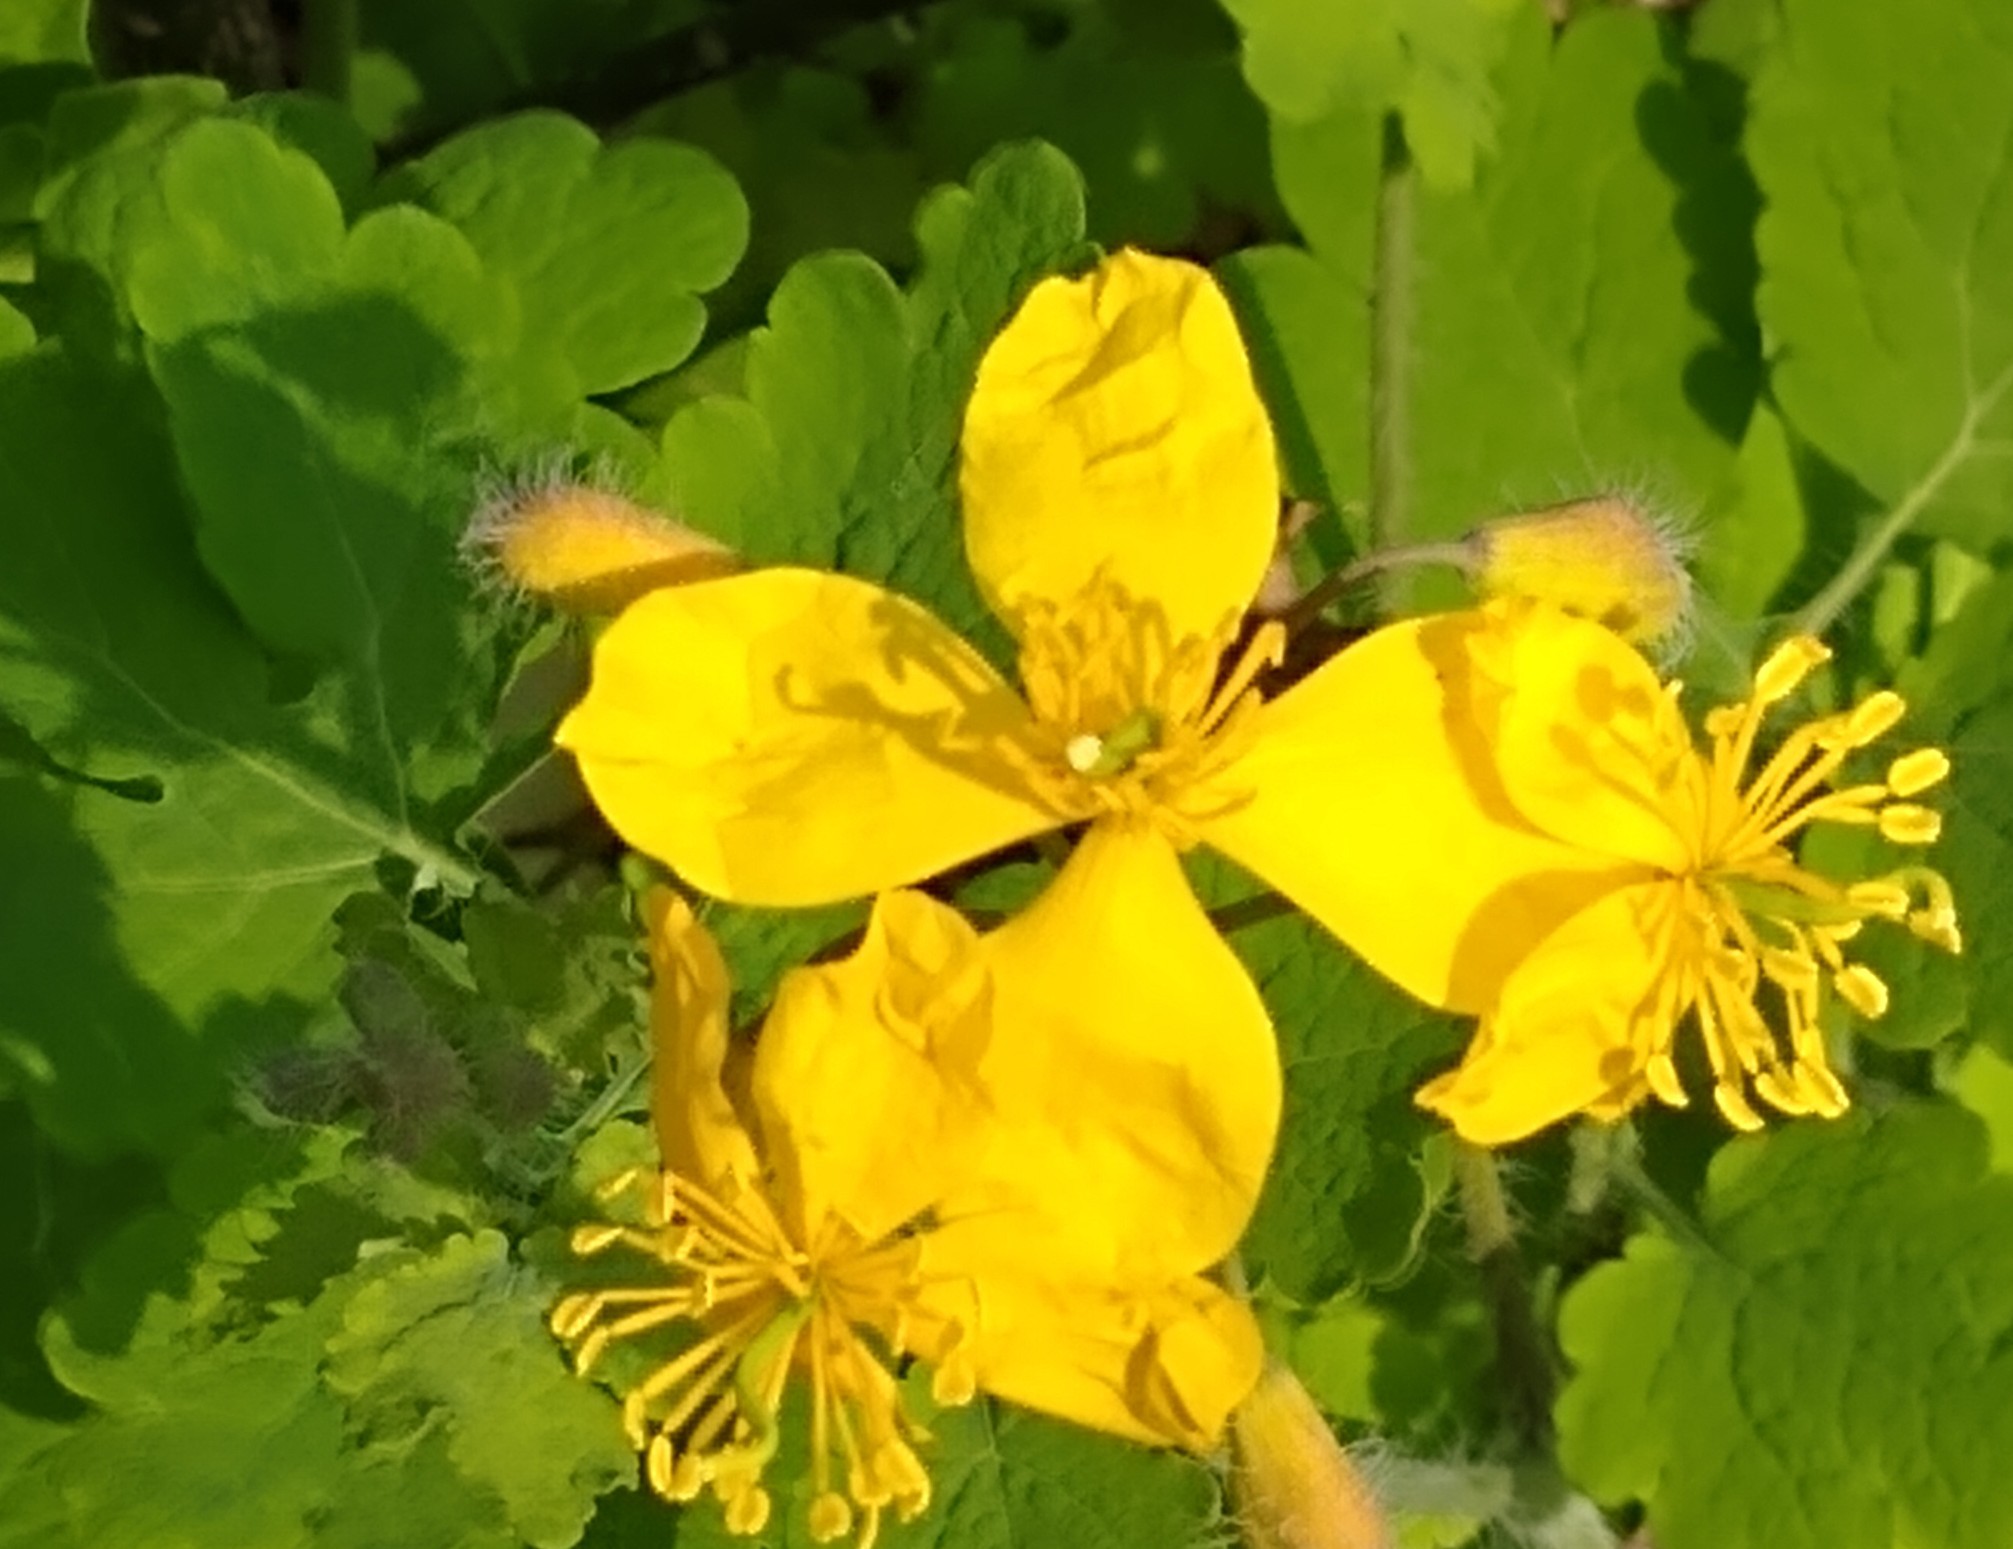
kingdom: Plantae
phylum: Tracheophyta
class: Magnoliopsida
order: Ranunculales
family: Papaveraceae
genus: Chelidonium
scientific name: Chelidonium majus
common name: Greater celandine
